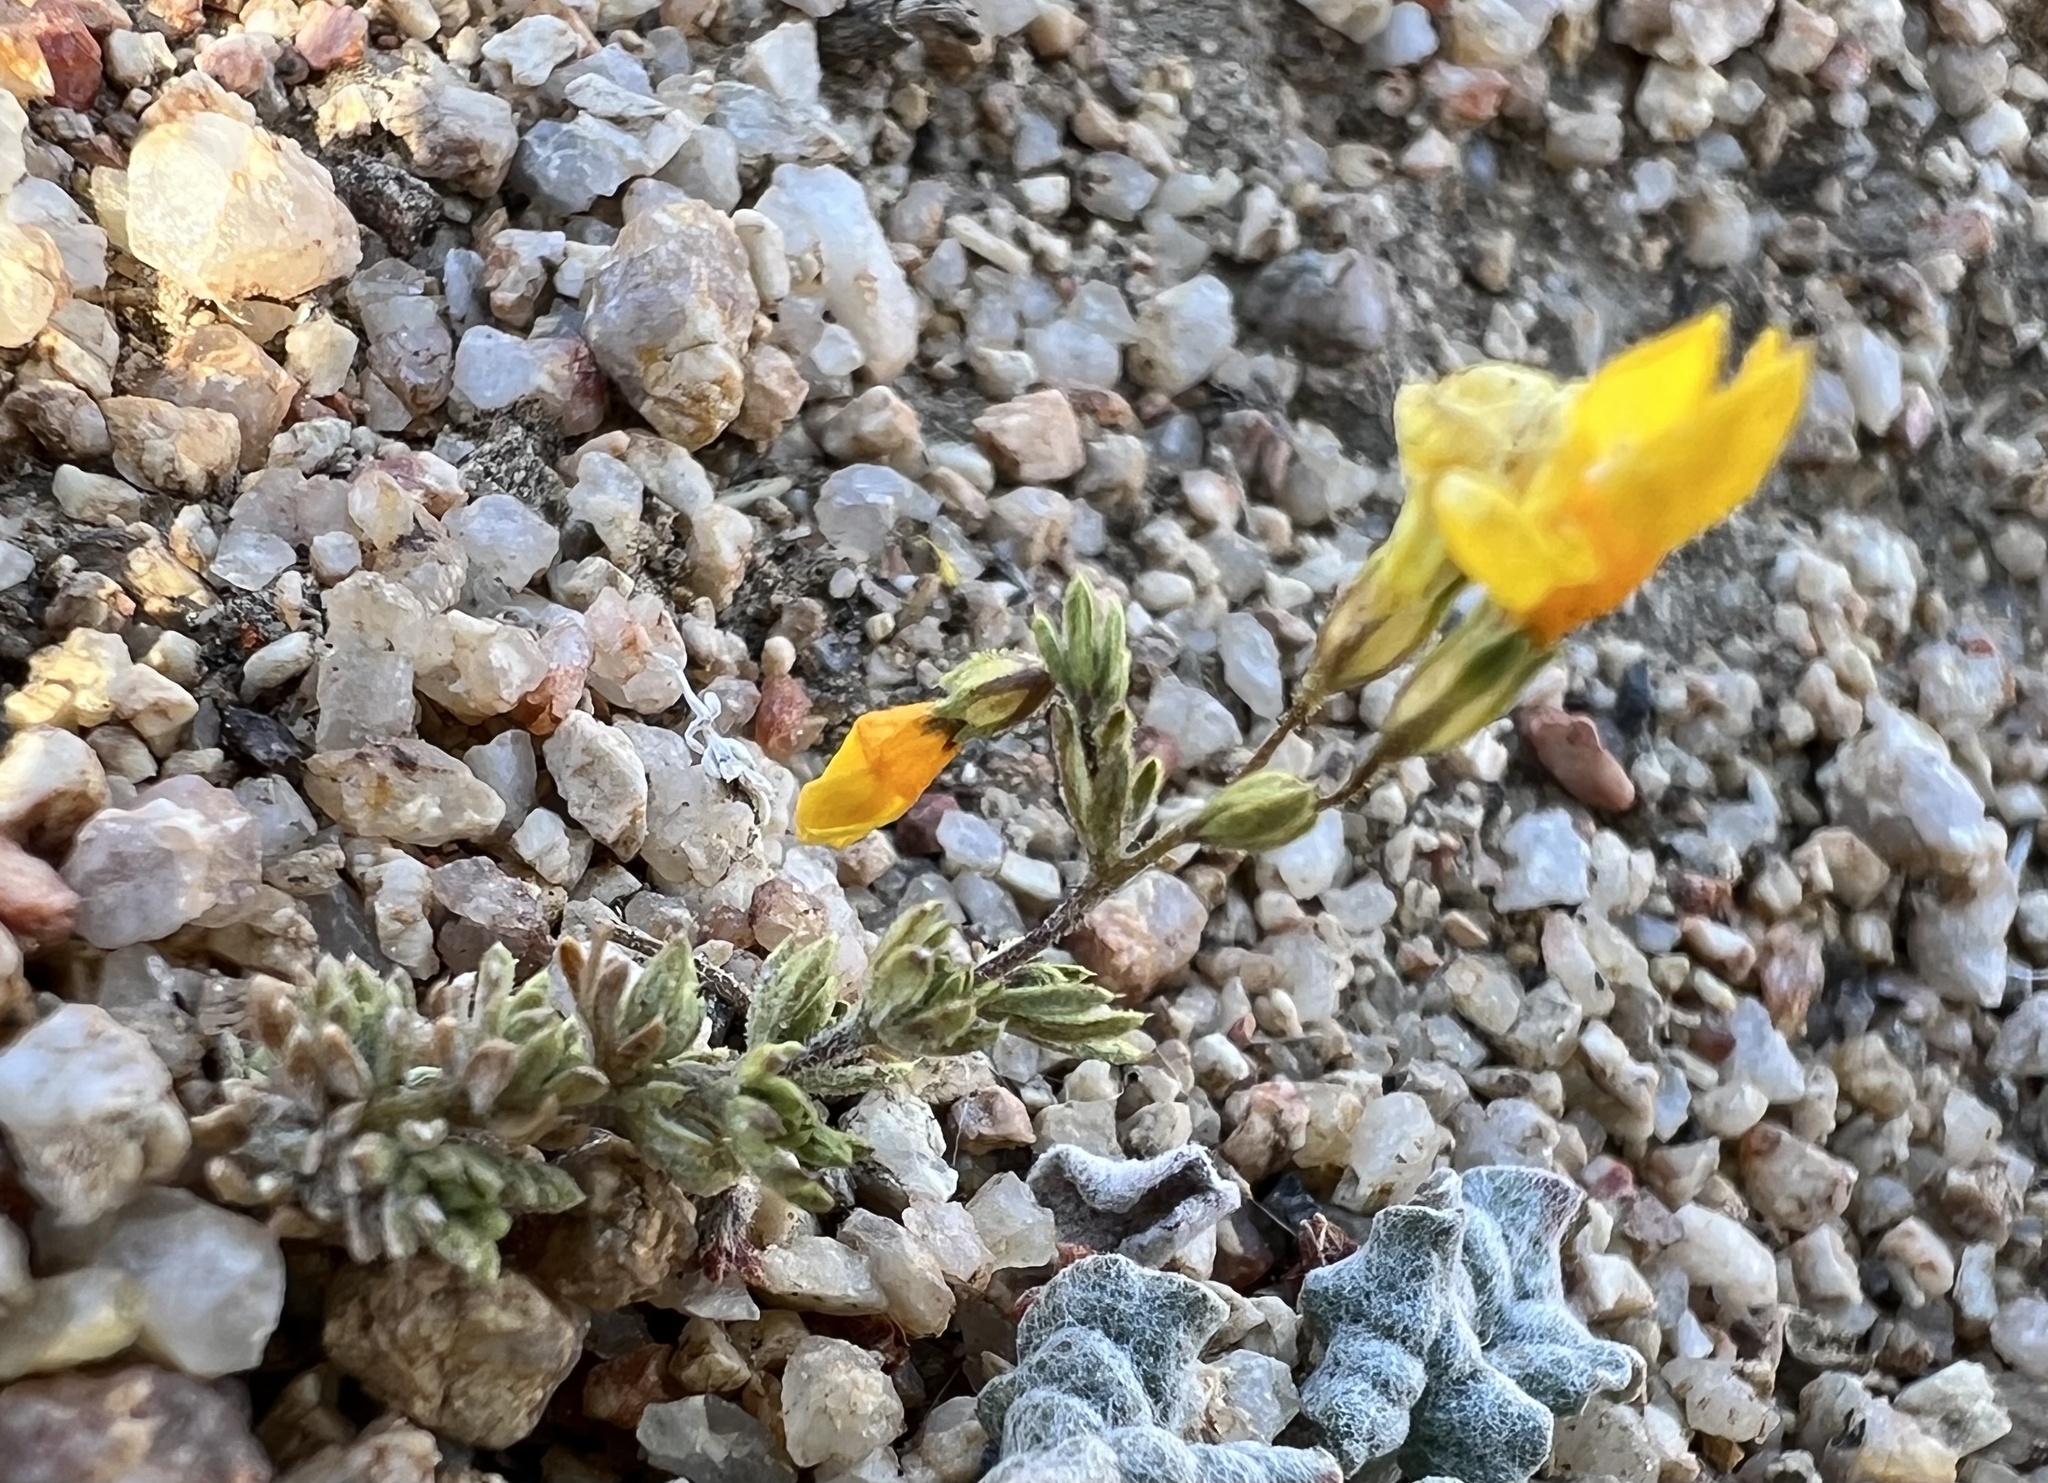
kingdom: Plantae
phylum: Tracheophyta
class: Magnoliopsida
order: Ericales
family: Polemoniaceae
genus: Leptosiphon
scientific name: Leptosiphon chrysanthus
